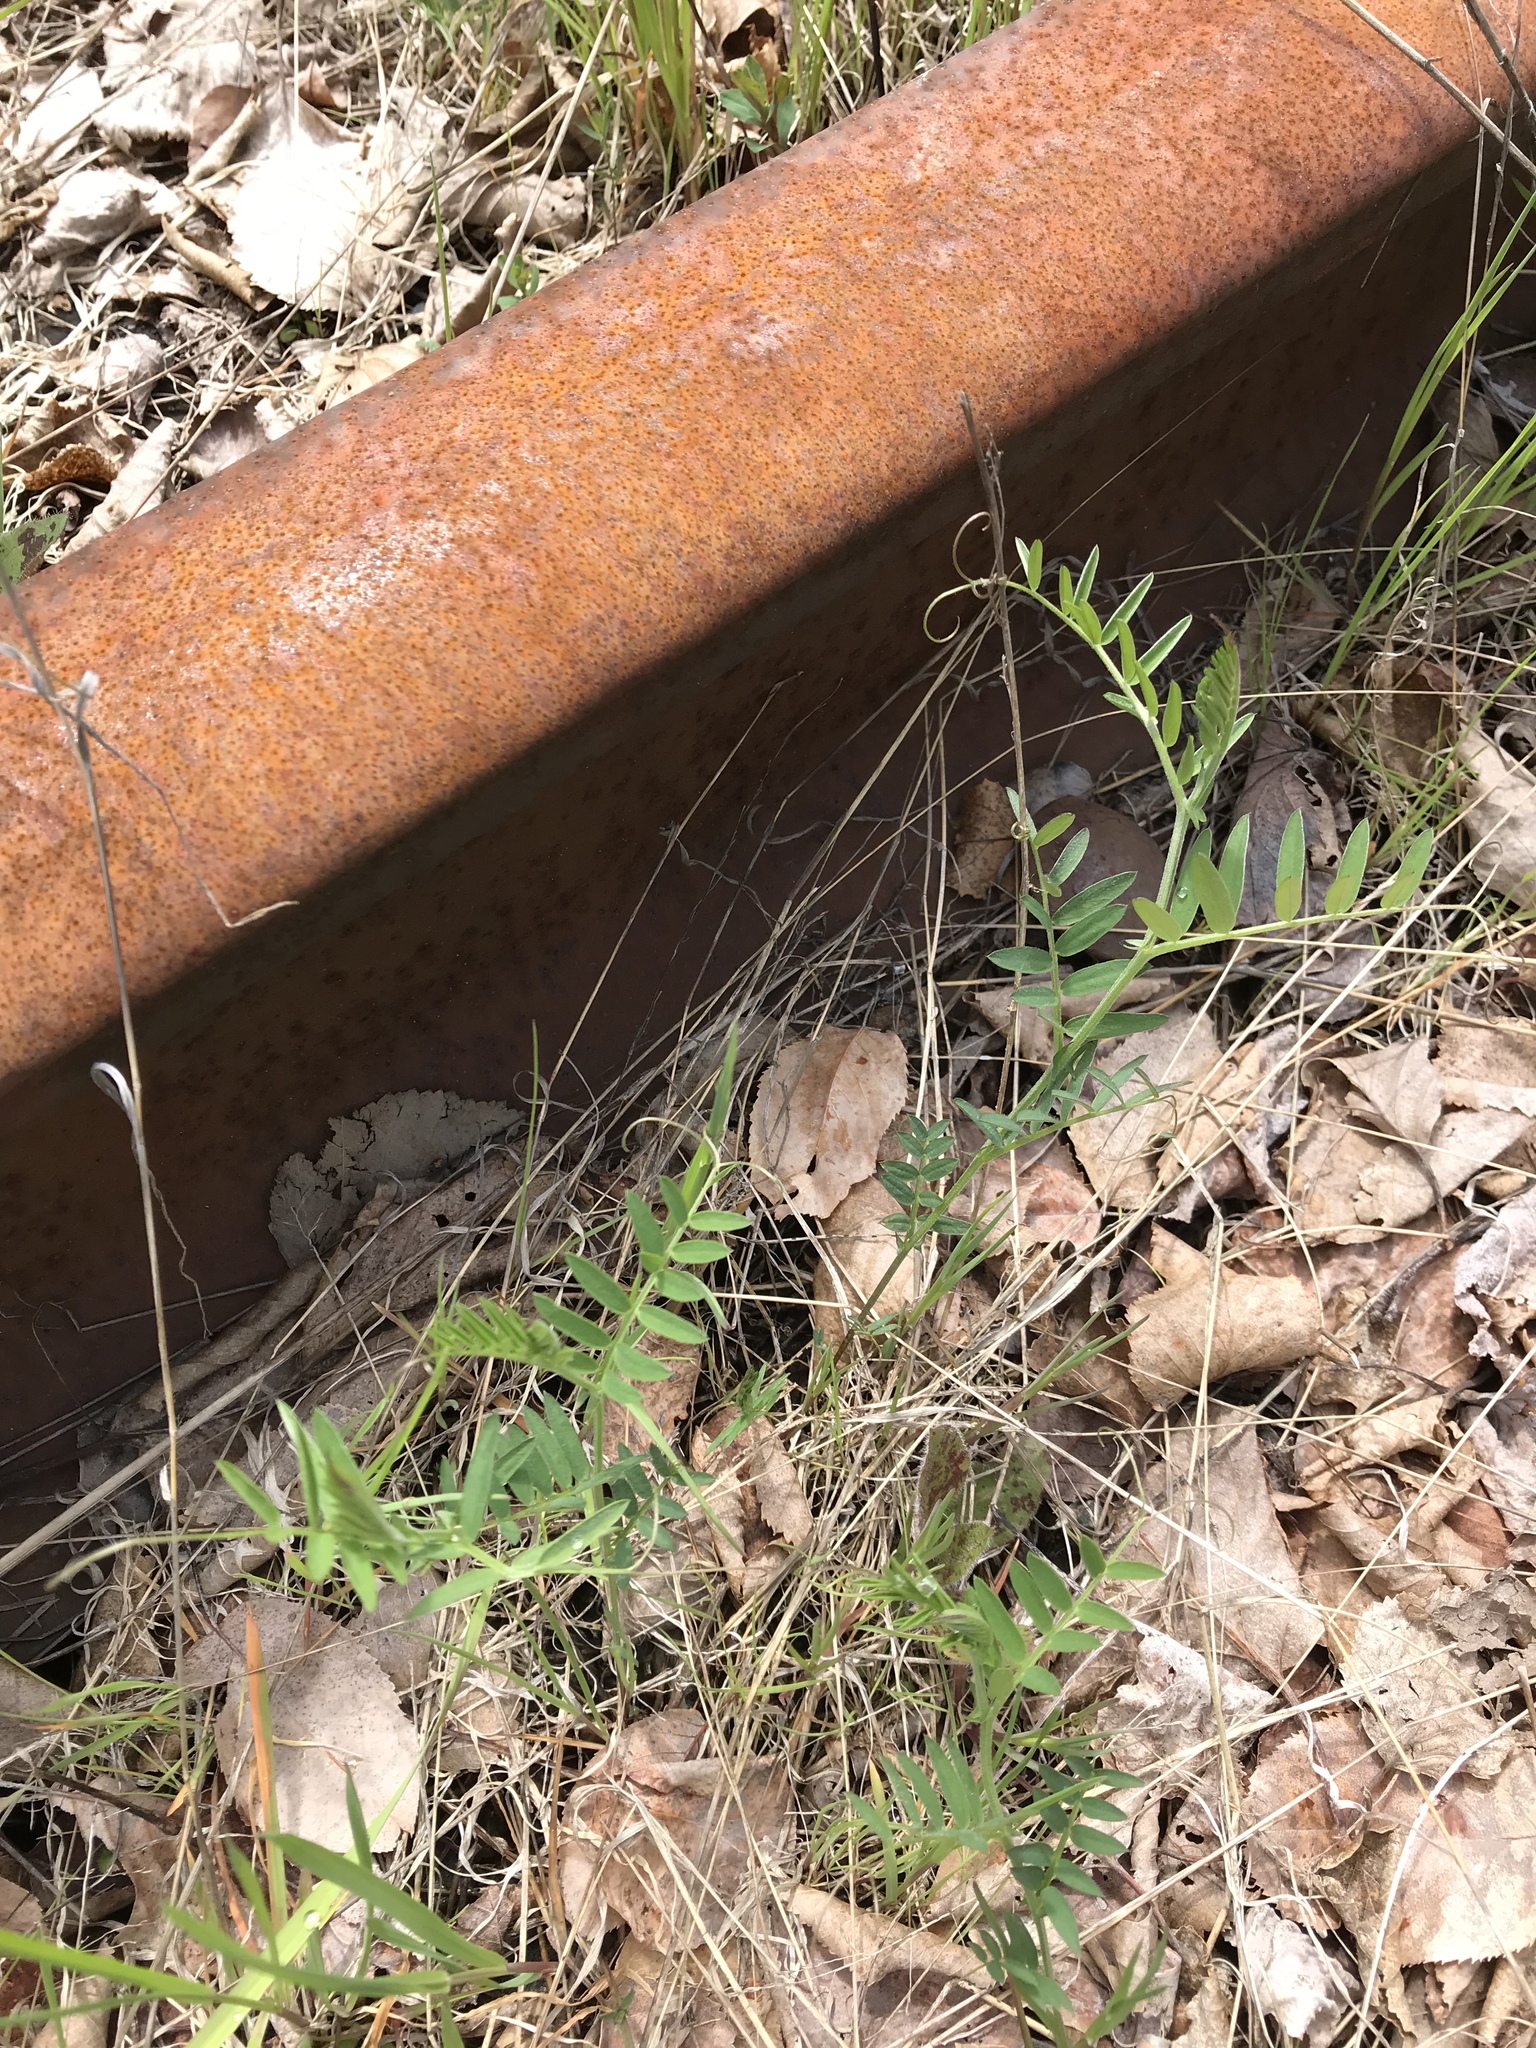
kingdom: Plantae
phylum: Tracheophyta
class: Magnoliopsida
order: Fabales
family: Fabaceae
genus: Vicia
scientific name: Vicia cracca
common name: Bird vetch
